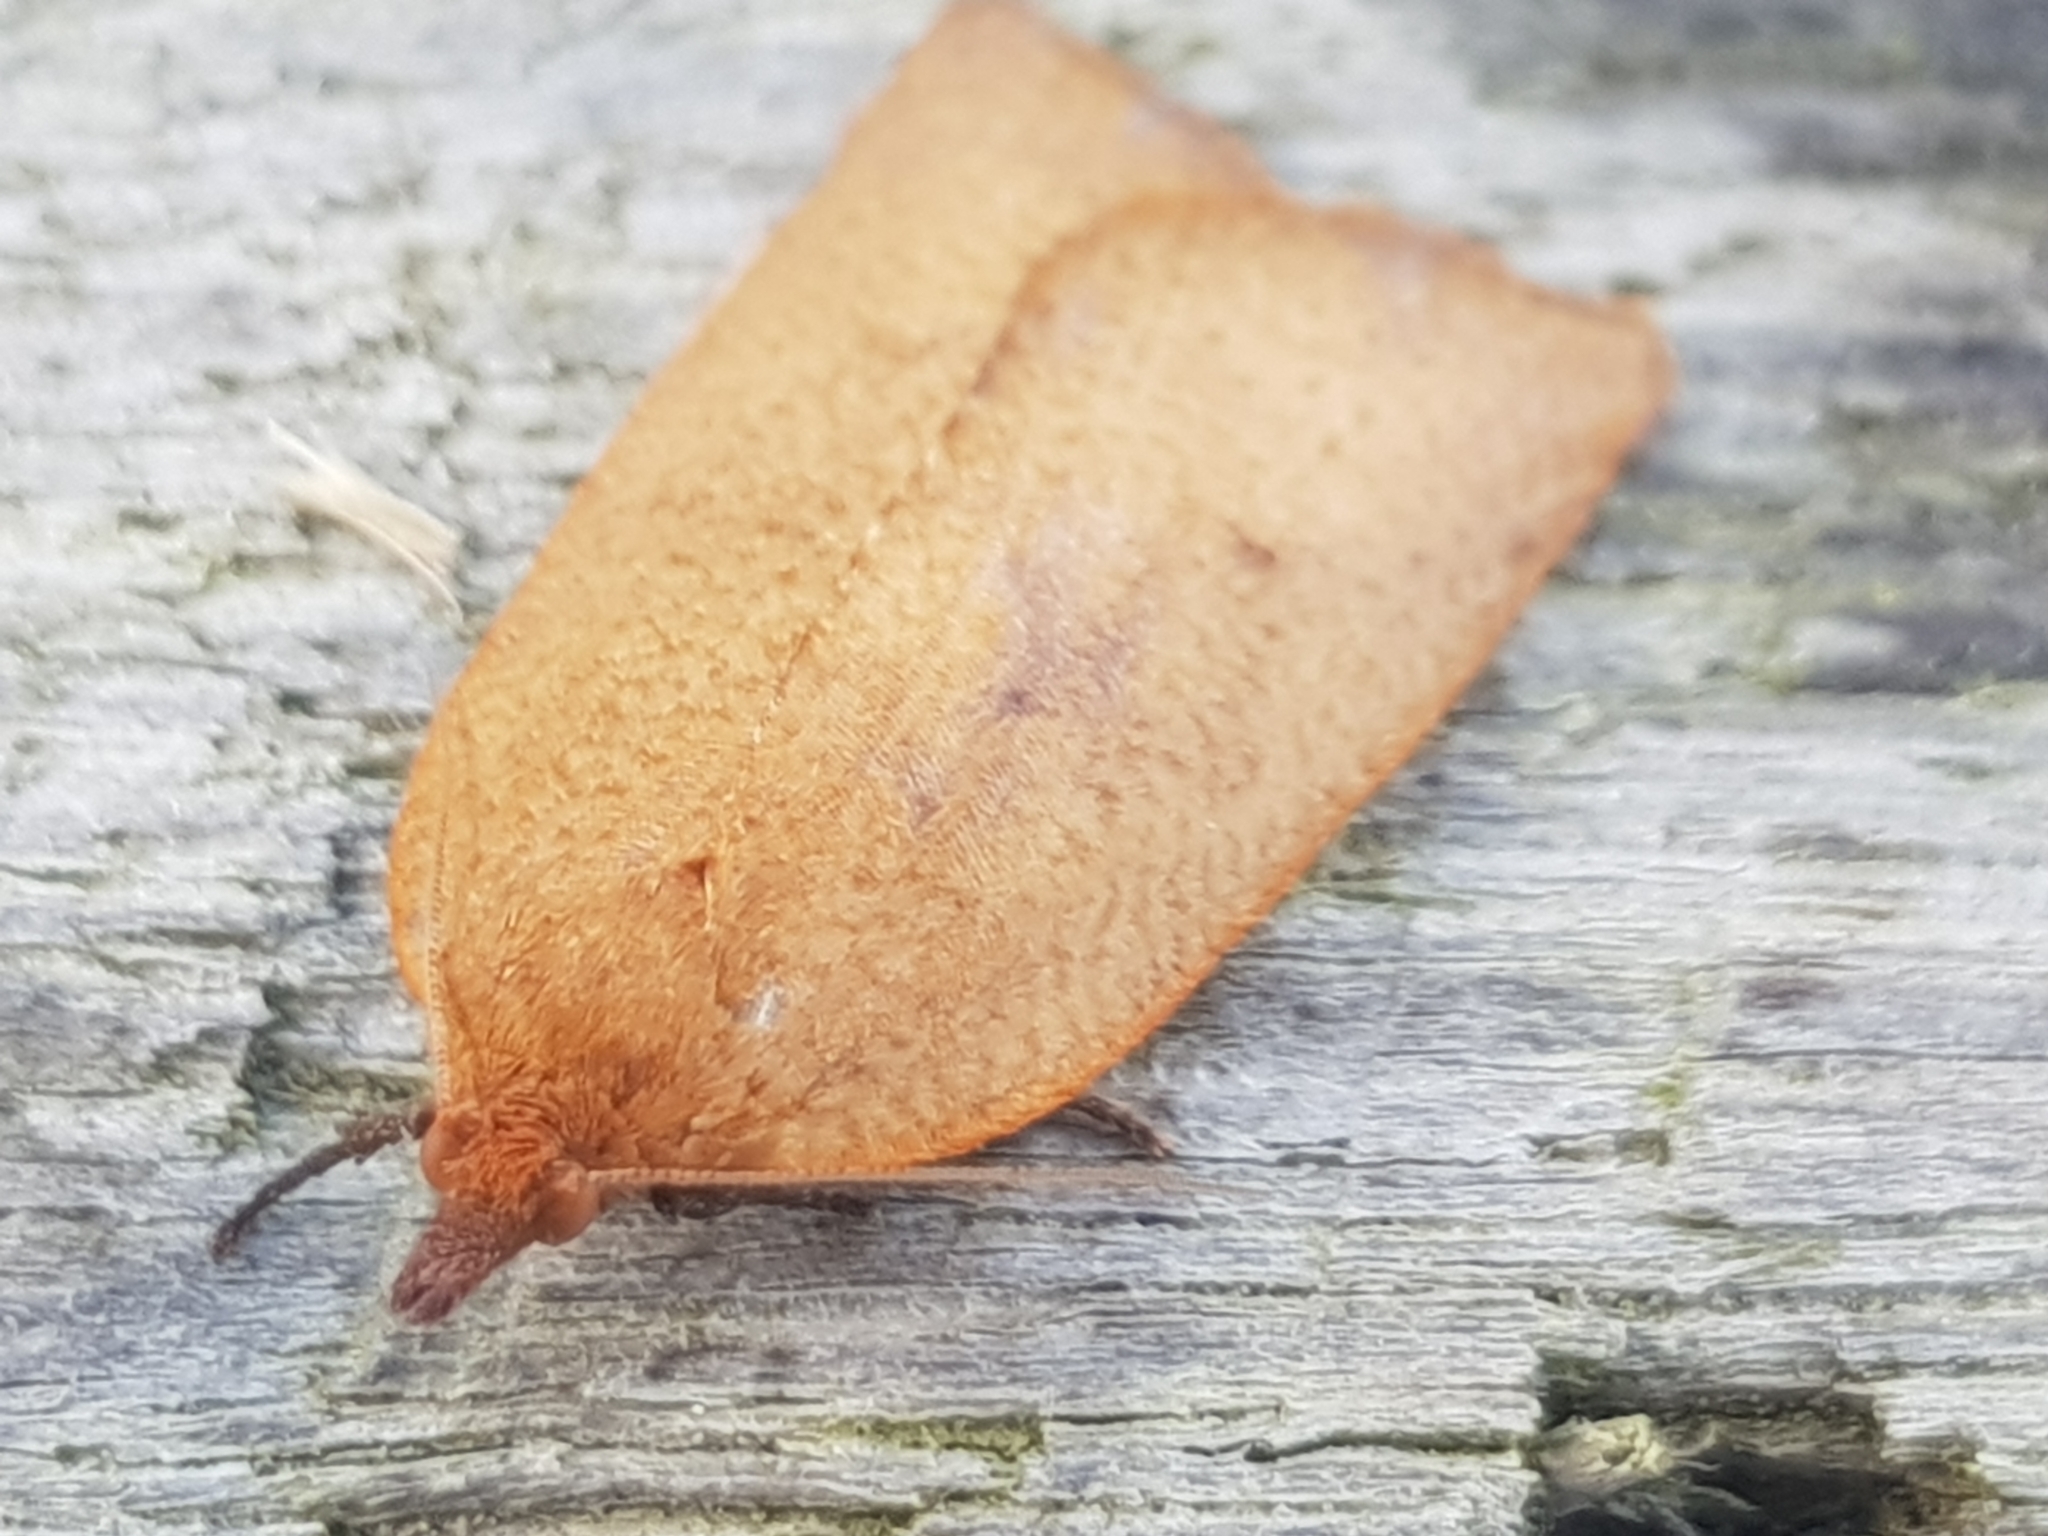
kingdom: Animalia
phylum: Arthropoda
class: Insecta
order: Lepidoptera
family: Tortricidae
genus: Planotortrix
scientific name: Planotortrix excessana
